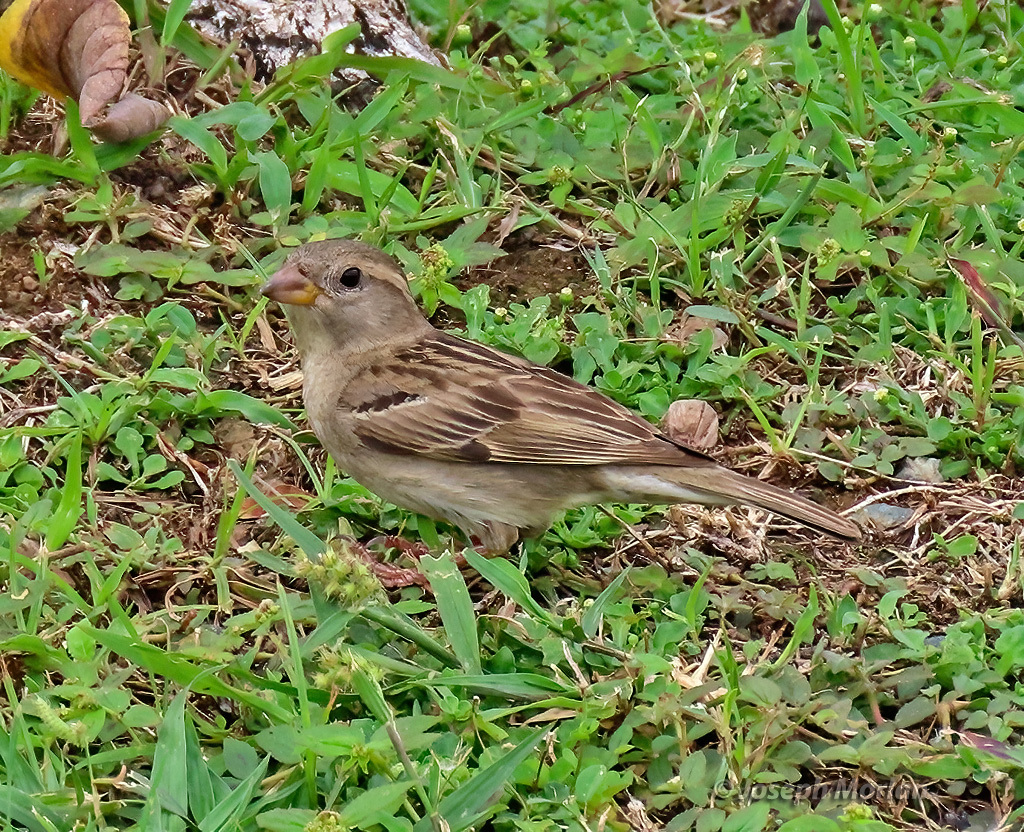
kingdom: Animalia
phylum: Chordata
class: Aves
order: Passeriformes
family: Passeridae
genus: Passer
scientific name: Passer domesticus
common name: House sparrow
